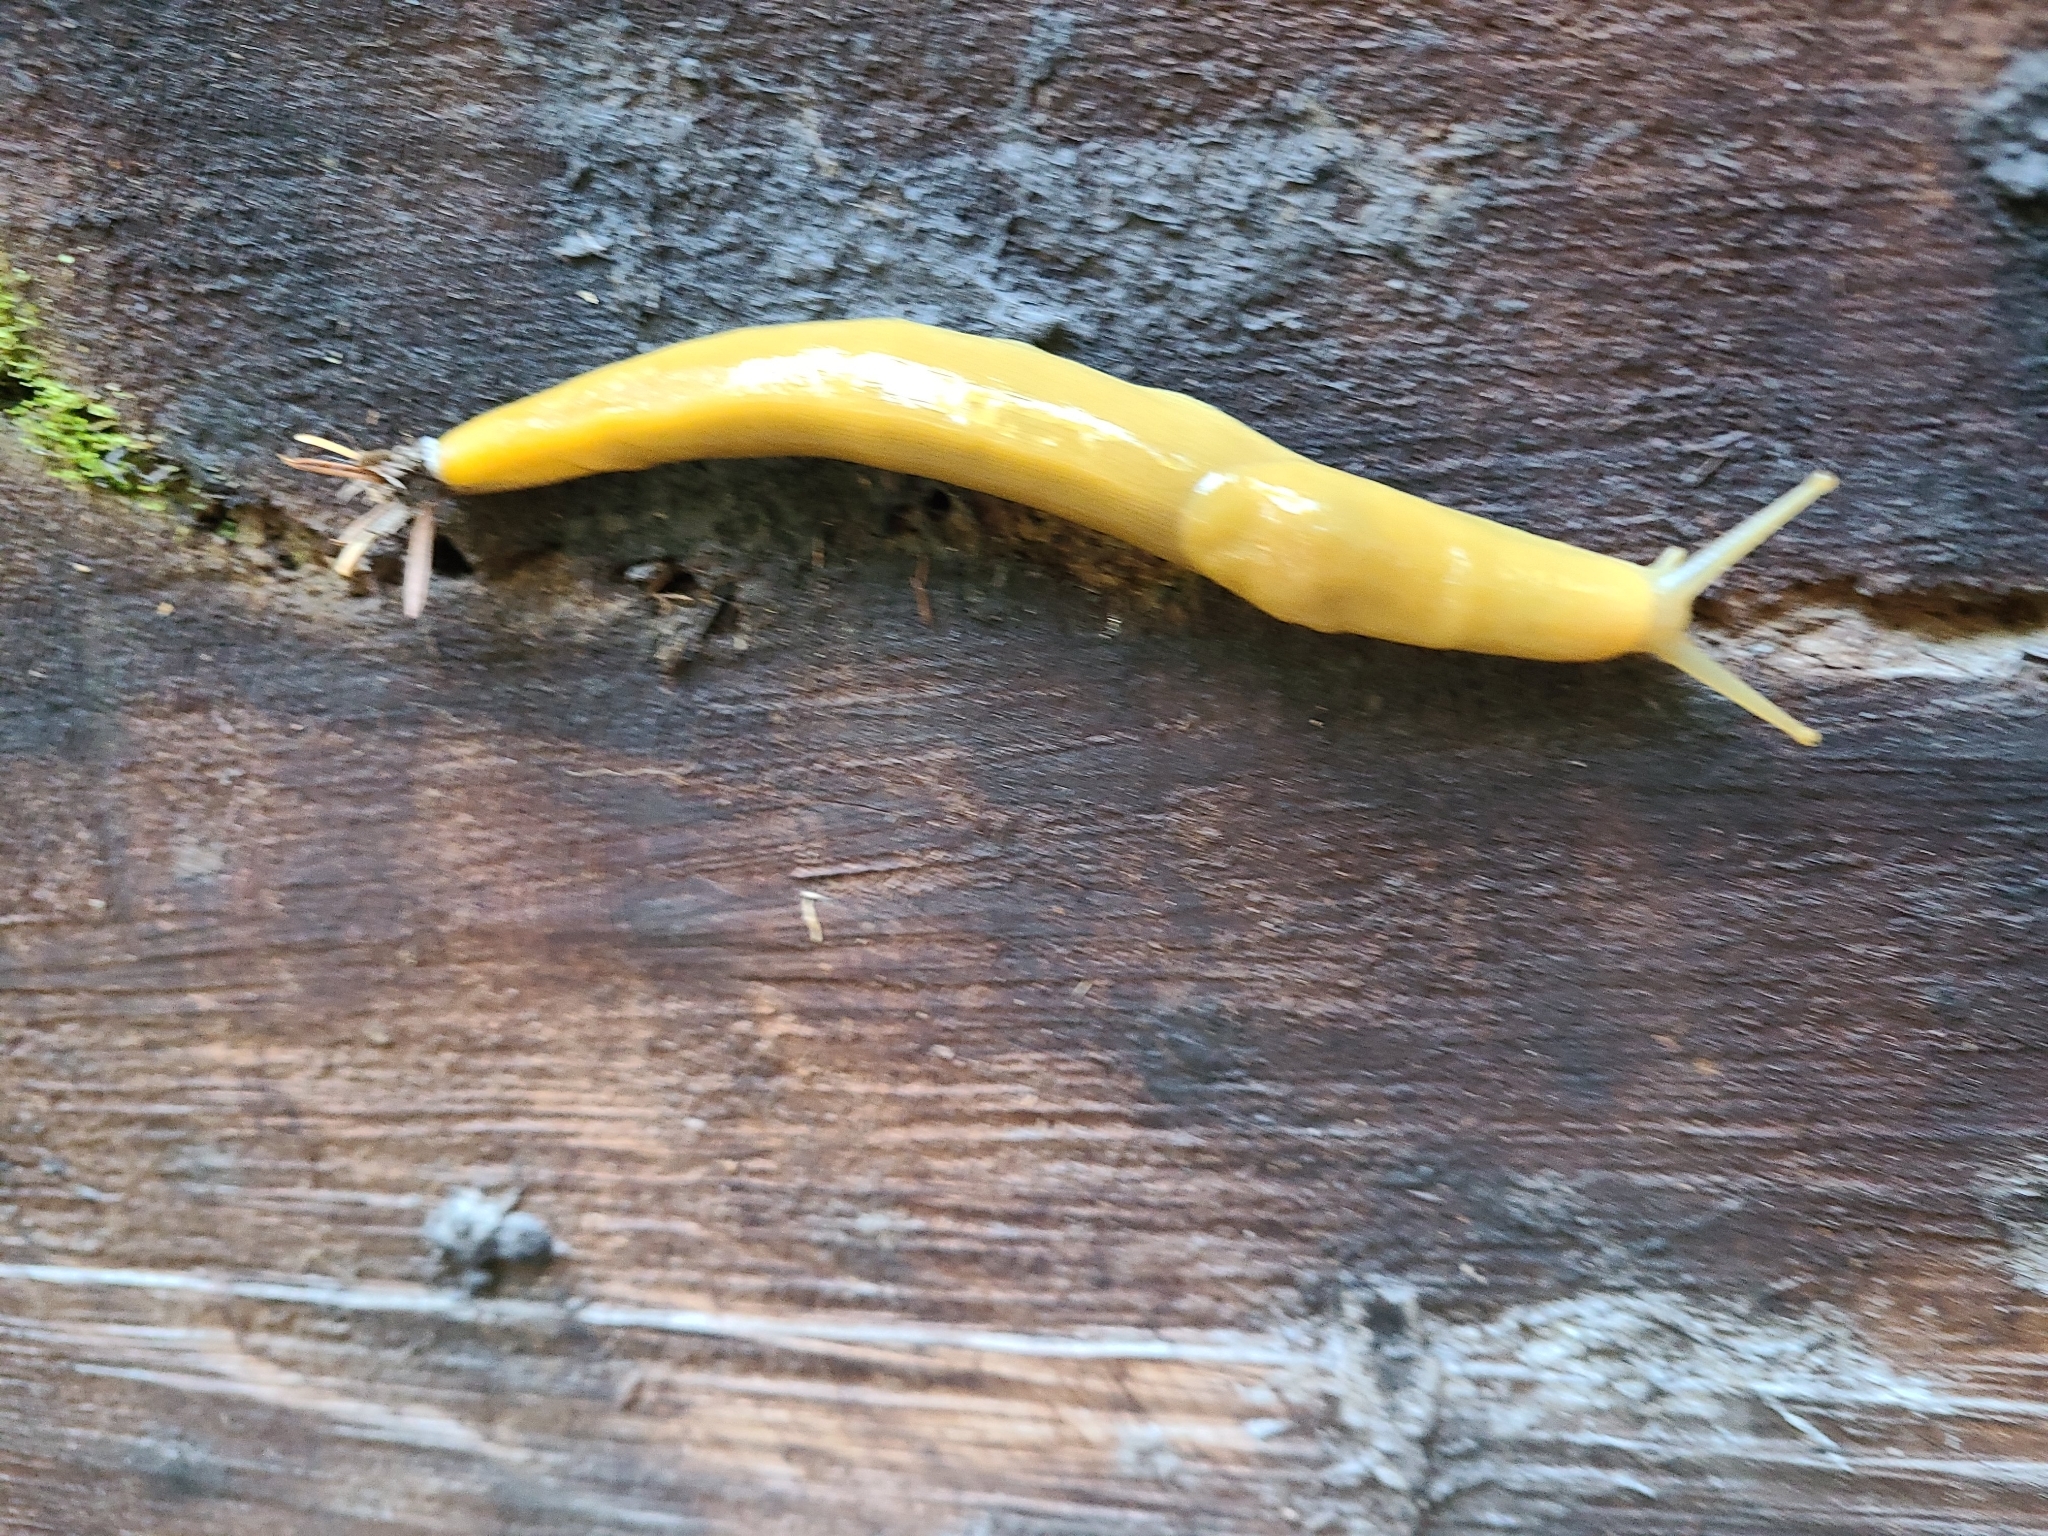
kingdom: Animalia
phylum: Mollusca
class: Gastropoda
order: Stylommatophora
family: Ariolimacidae
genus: Ariolimax
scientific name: Ariolimax columbianus
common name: Pacific banana slug
